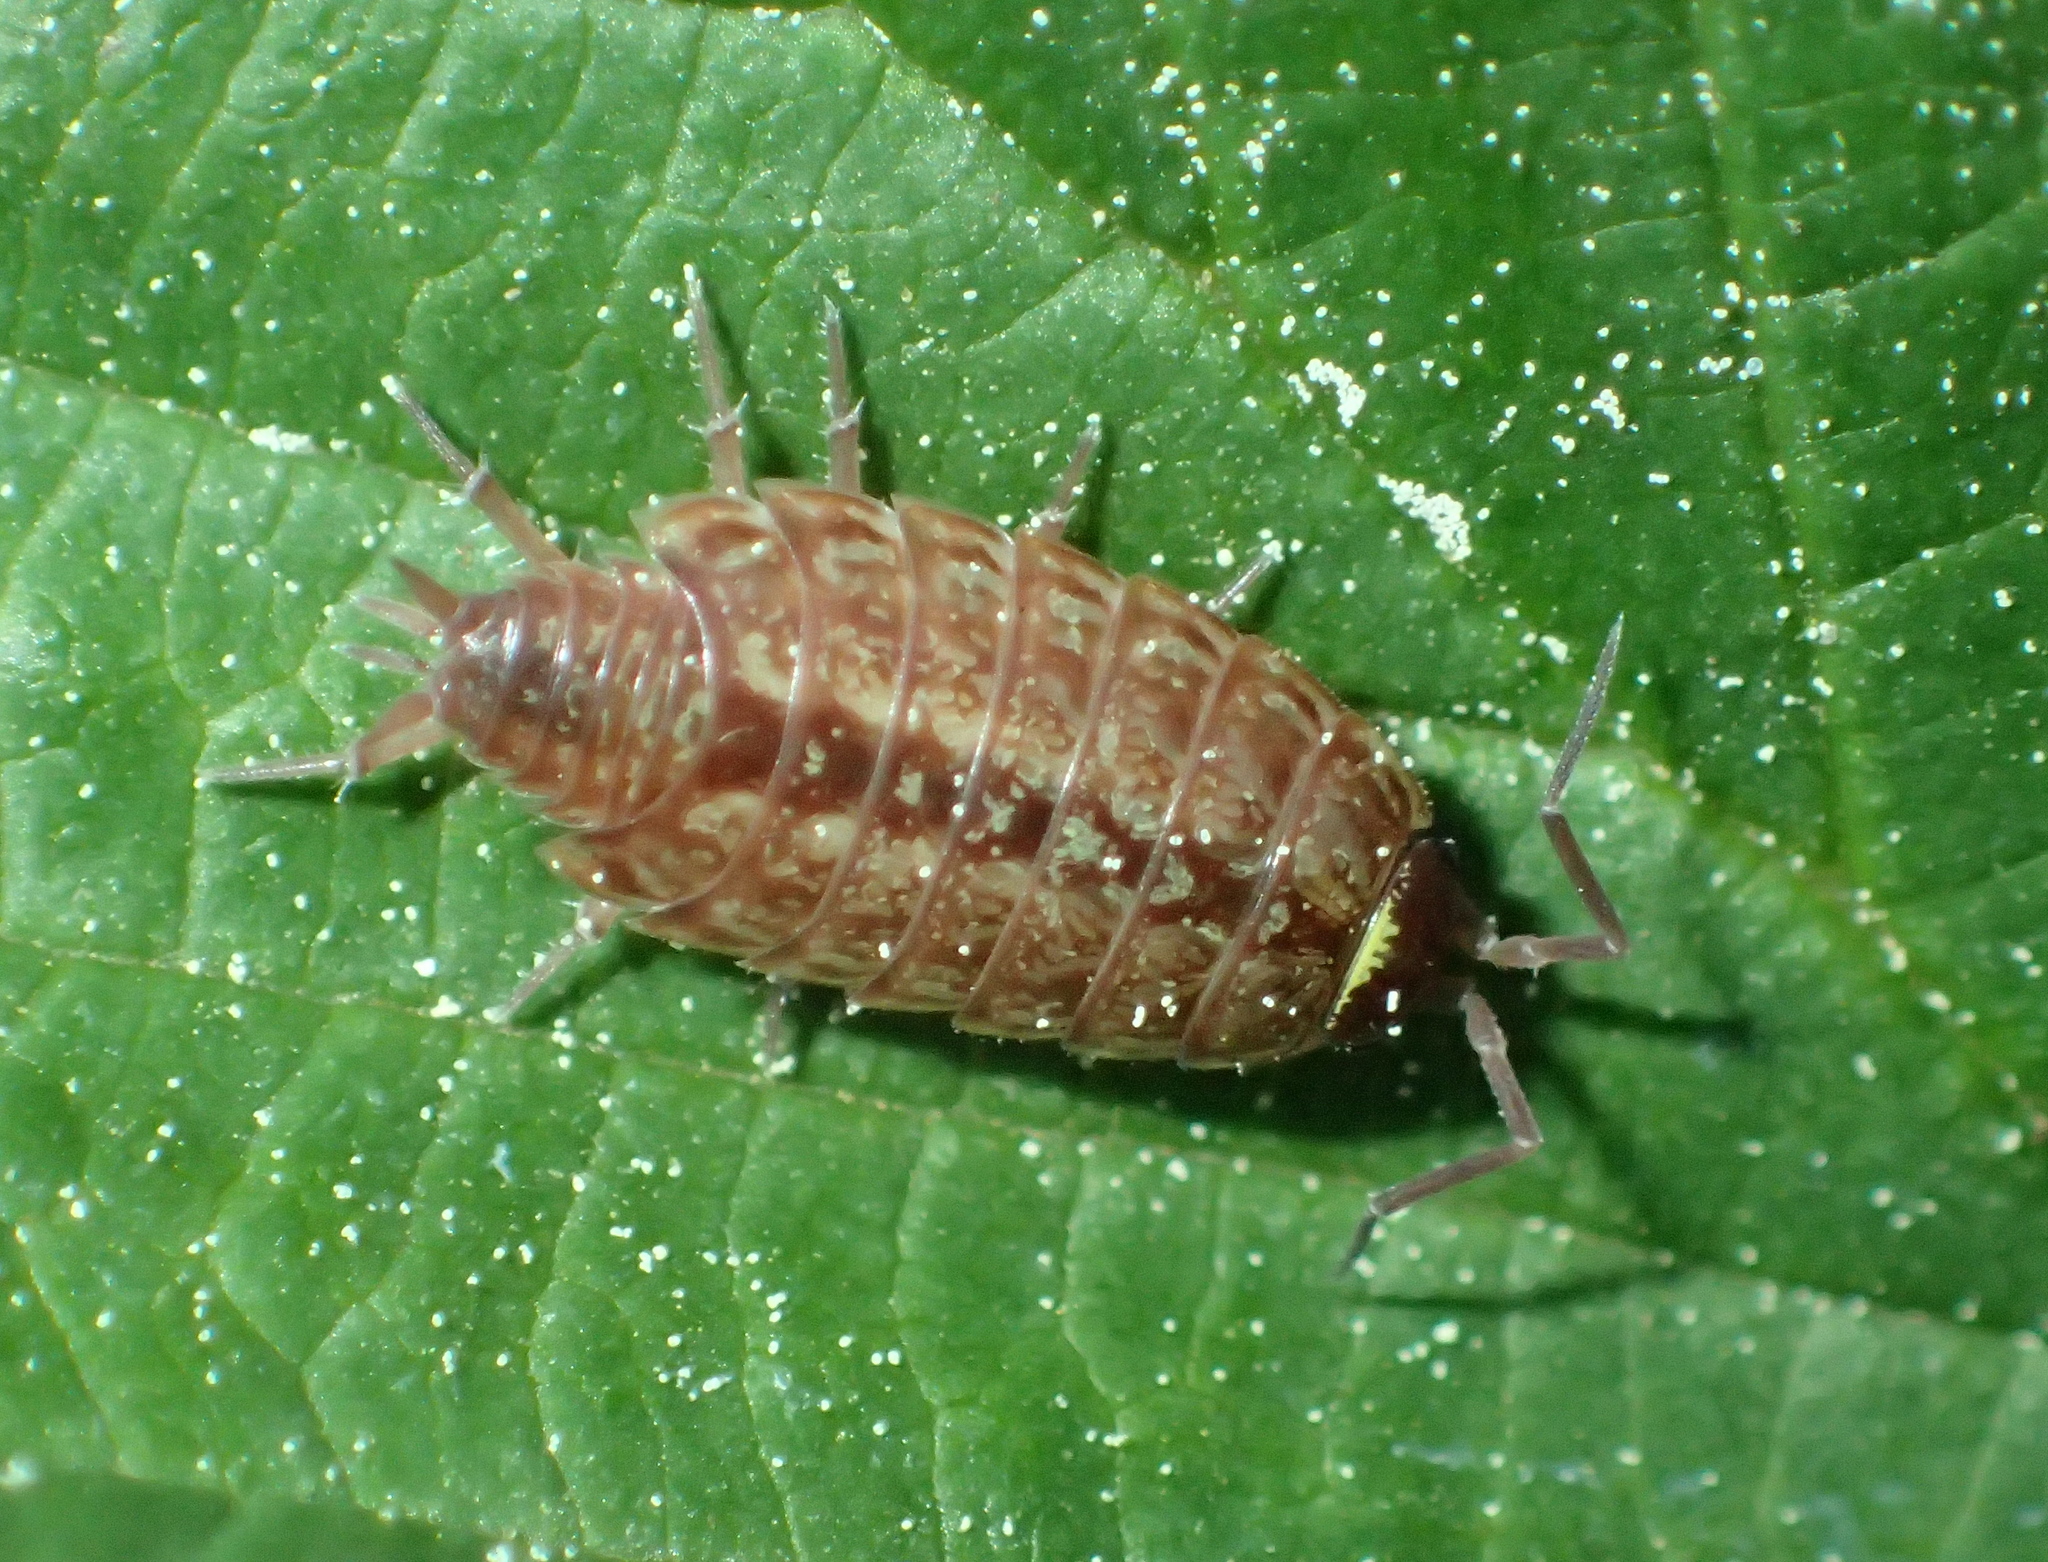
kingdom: Animalia
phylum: Arthropoda
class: Malacostraca
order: Isopoda
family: Philosciidae
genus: Philoscia
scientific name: Philoscia muscorum
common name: Common striped woodlouse
